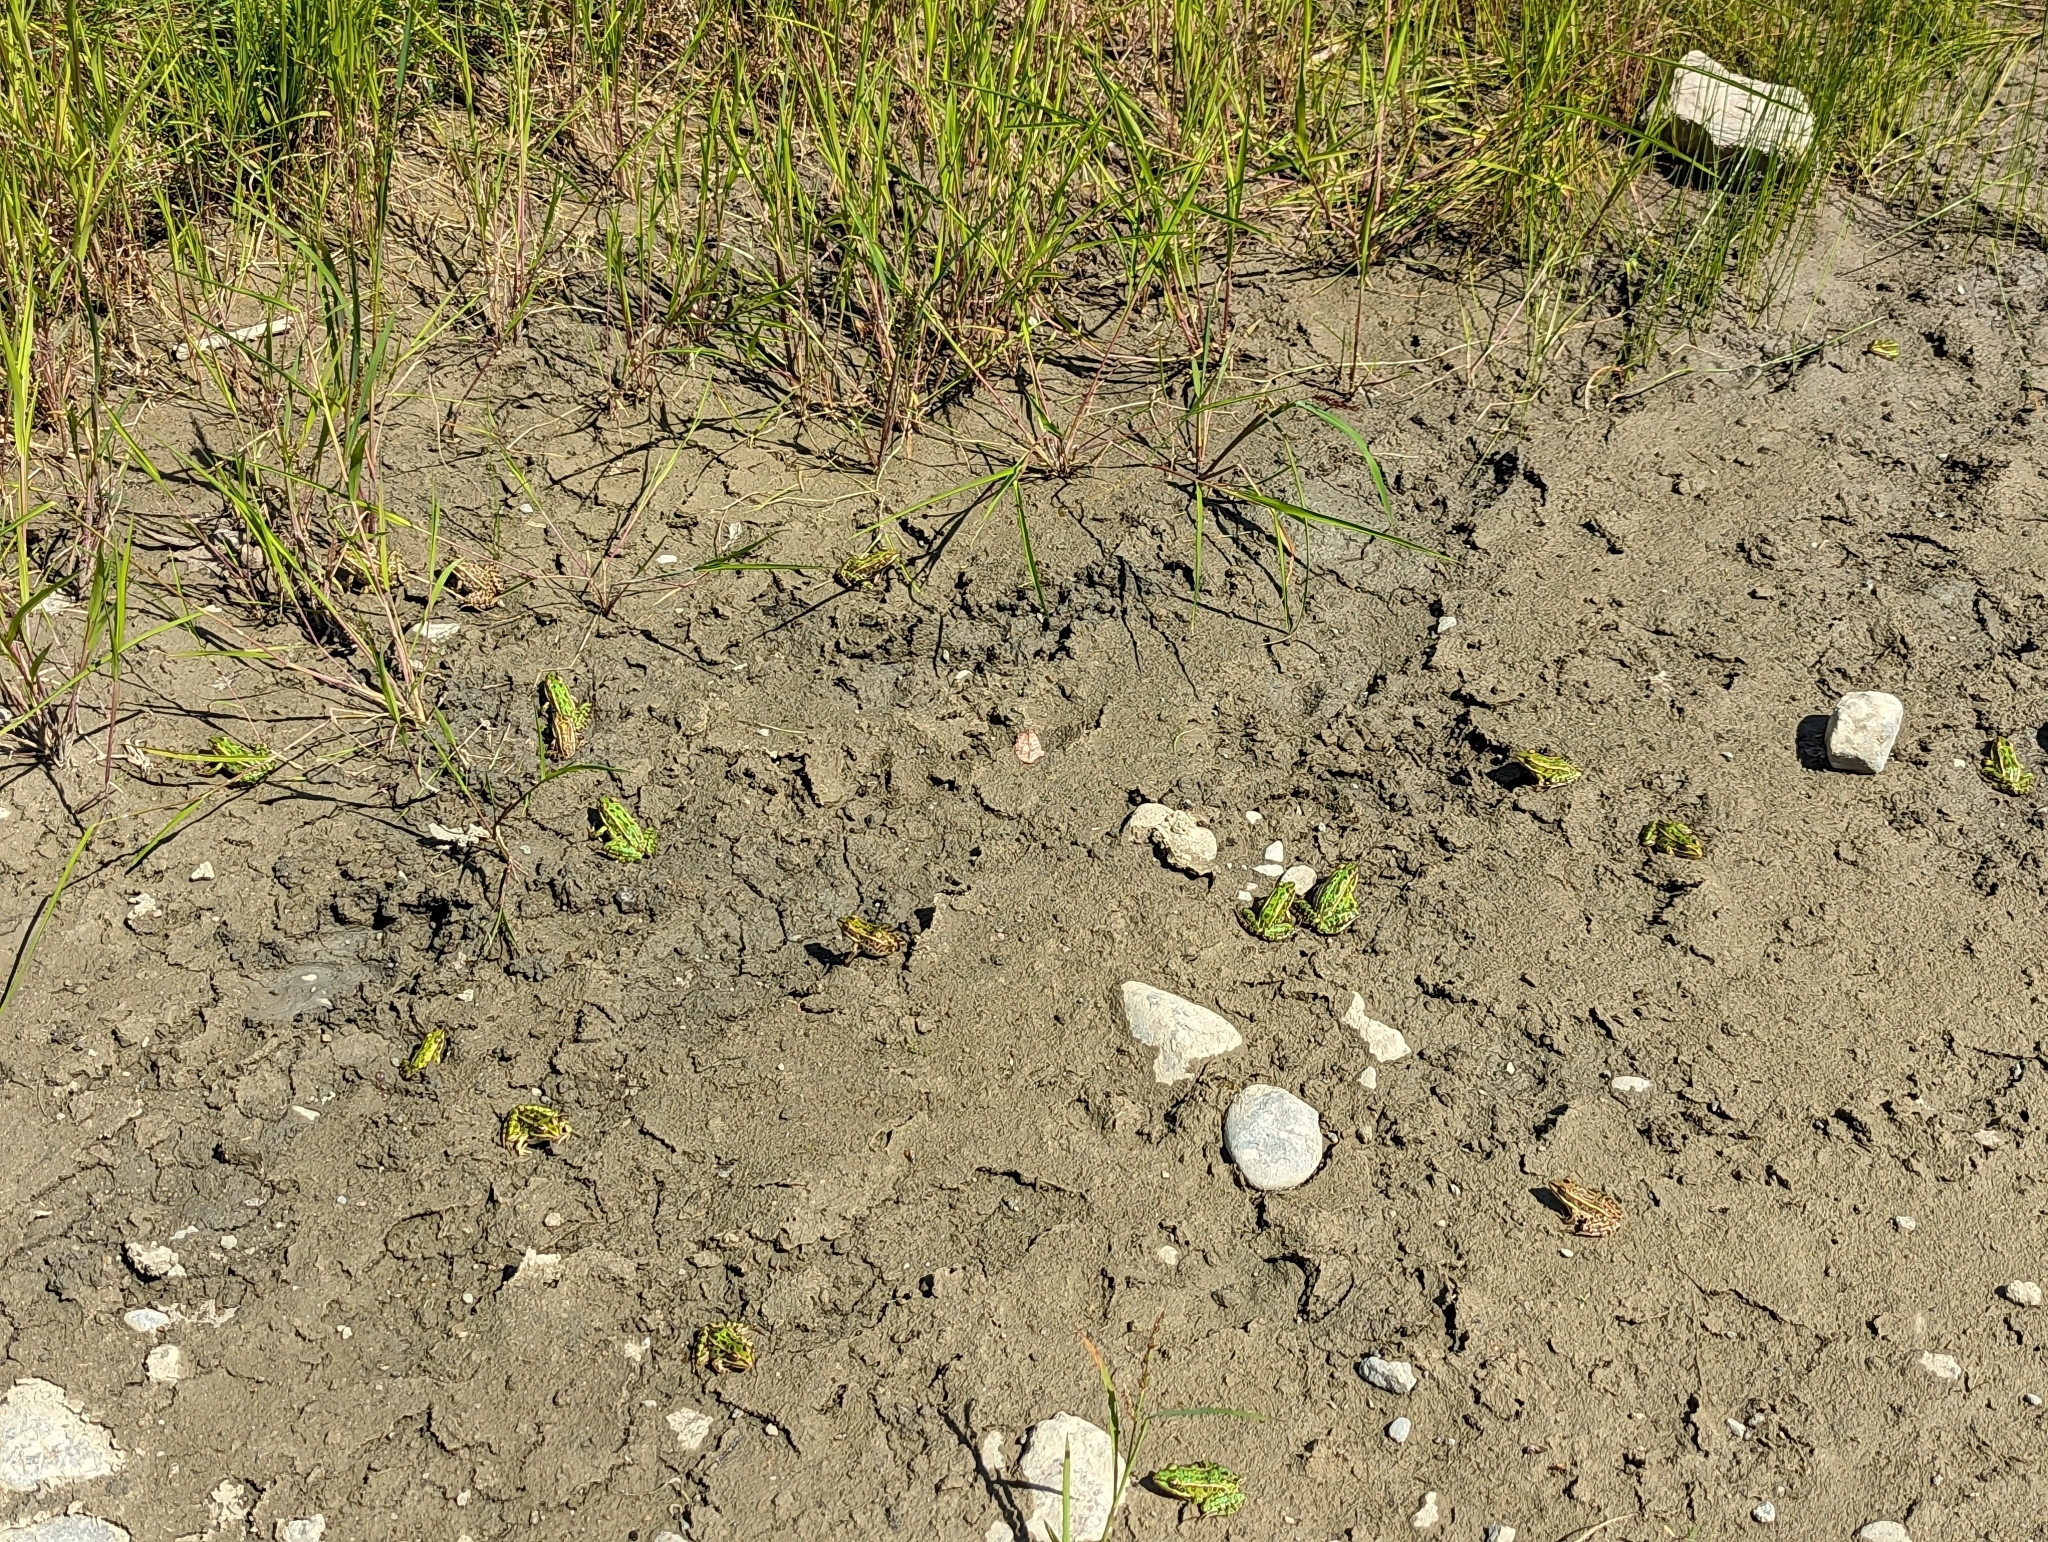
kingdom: Animalia
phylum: Chordata
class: Amphibia
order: Anura
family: Ranidae
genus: Lithobates
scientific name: Lithobates pipiens
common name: Northern leopard frog
